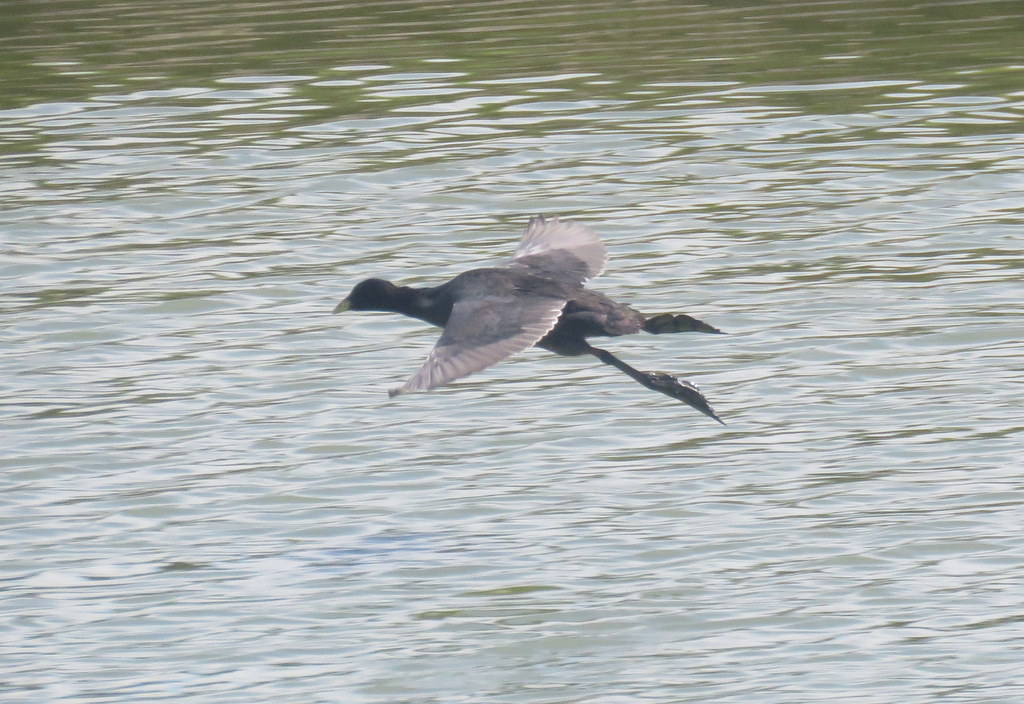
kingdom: Animalia
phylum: Chordata
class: Aves
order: Gruiformes
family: Rallidae
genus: Fulica
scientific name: Fulica armillata
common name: Red-gartered coot
